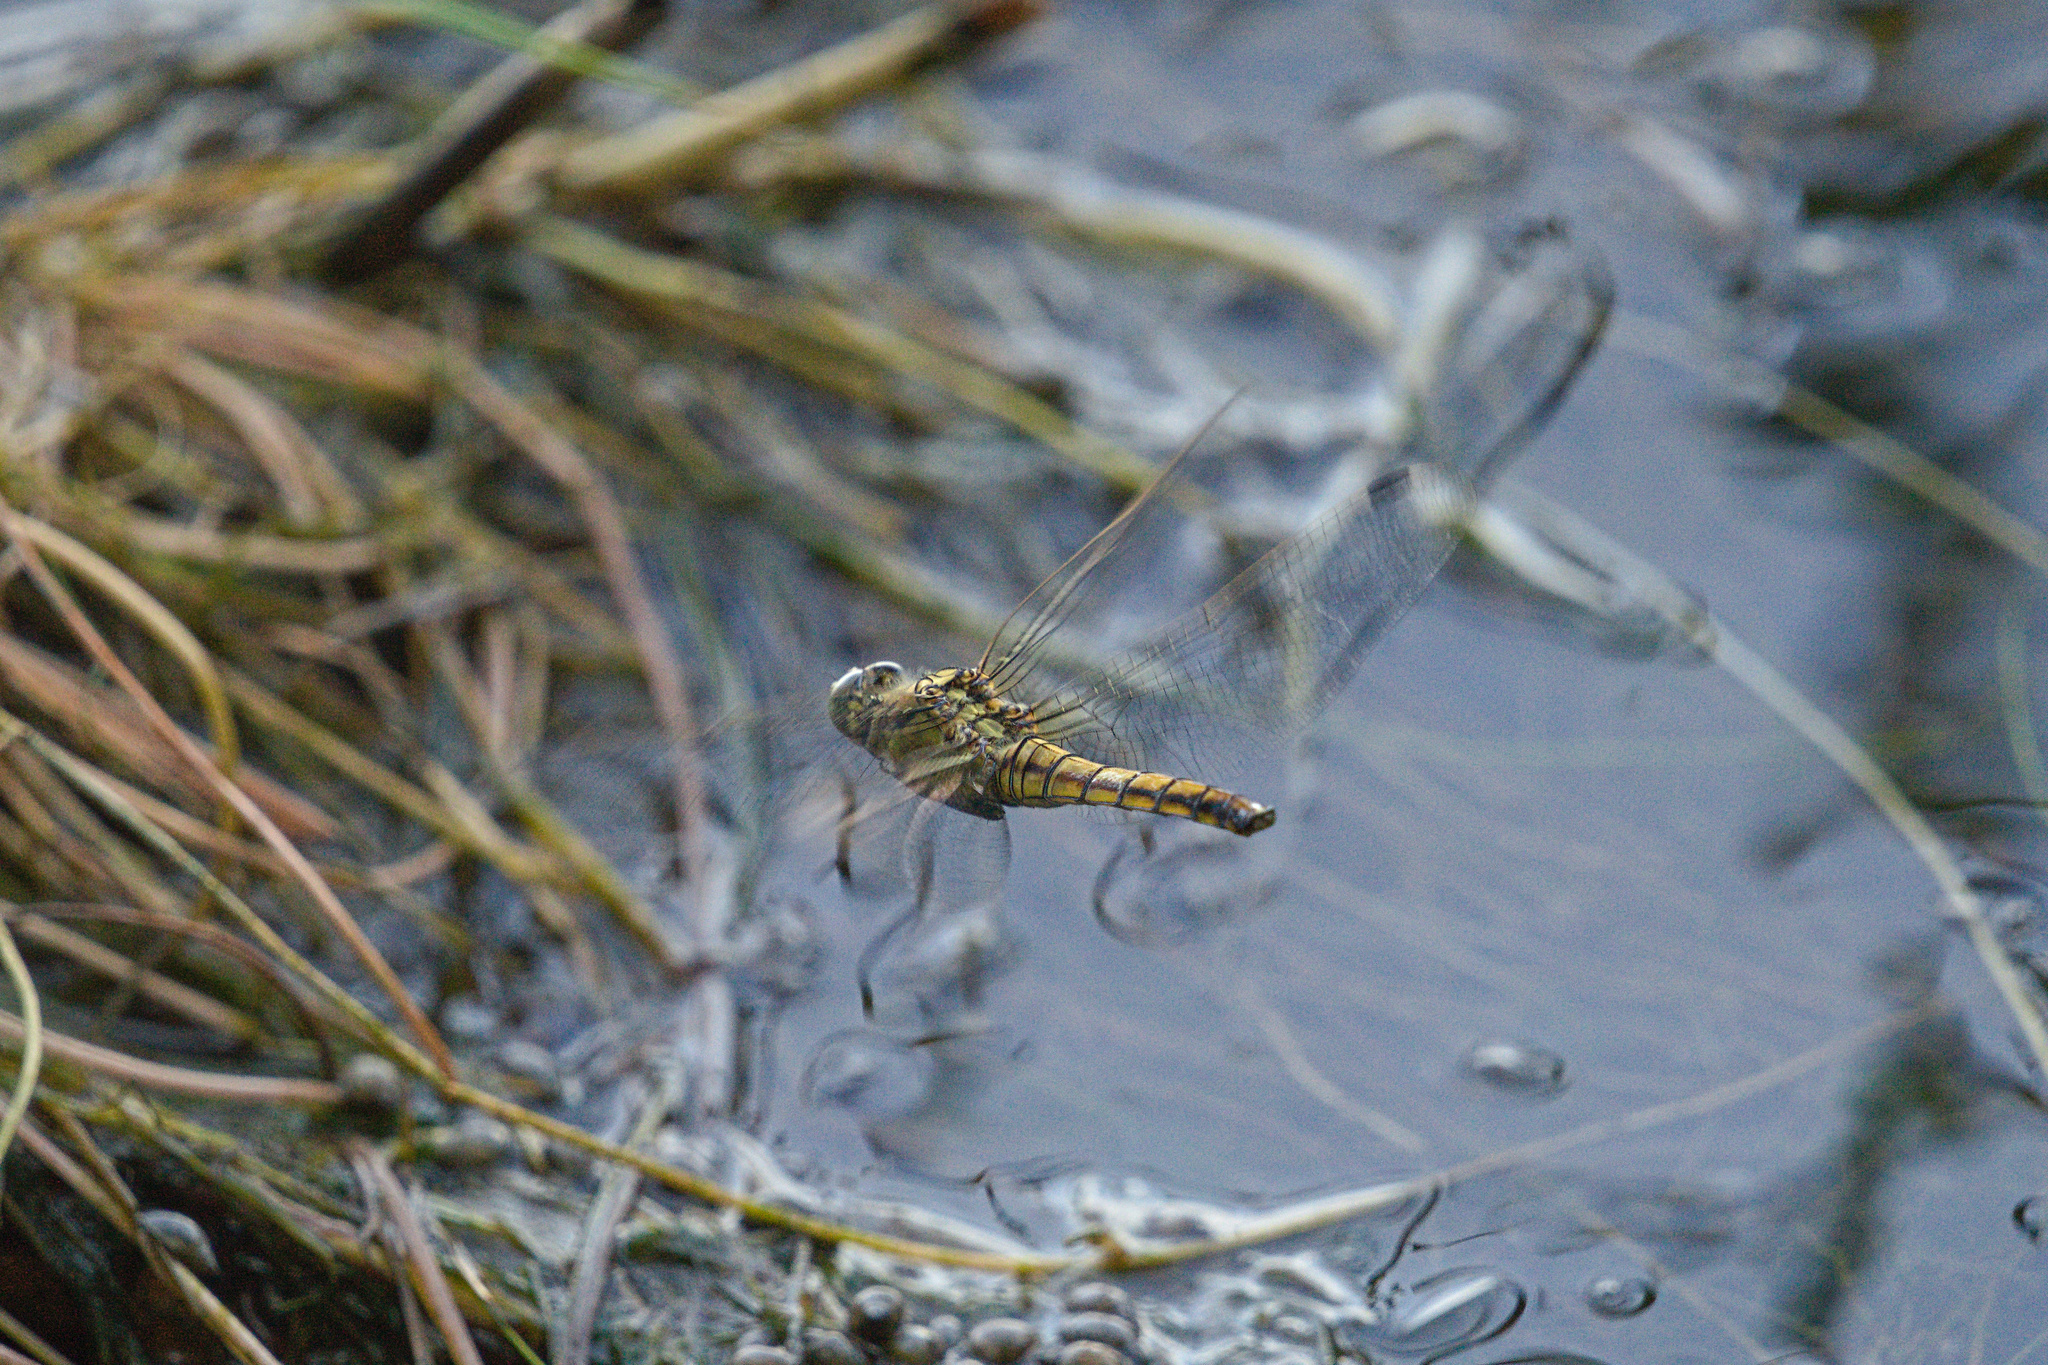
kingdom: Animalia
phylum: Arthropoda
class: Insecta
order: Odonata
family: Libellulidae
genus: Orthetrum
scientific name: Orthetrum cancellatum
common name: Black-tailed skimmer
